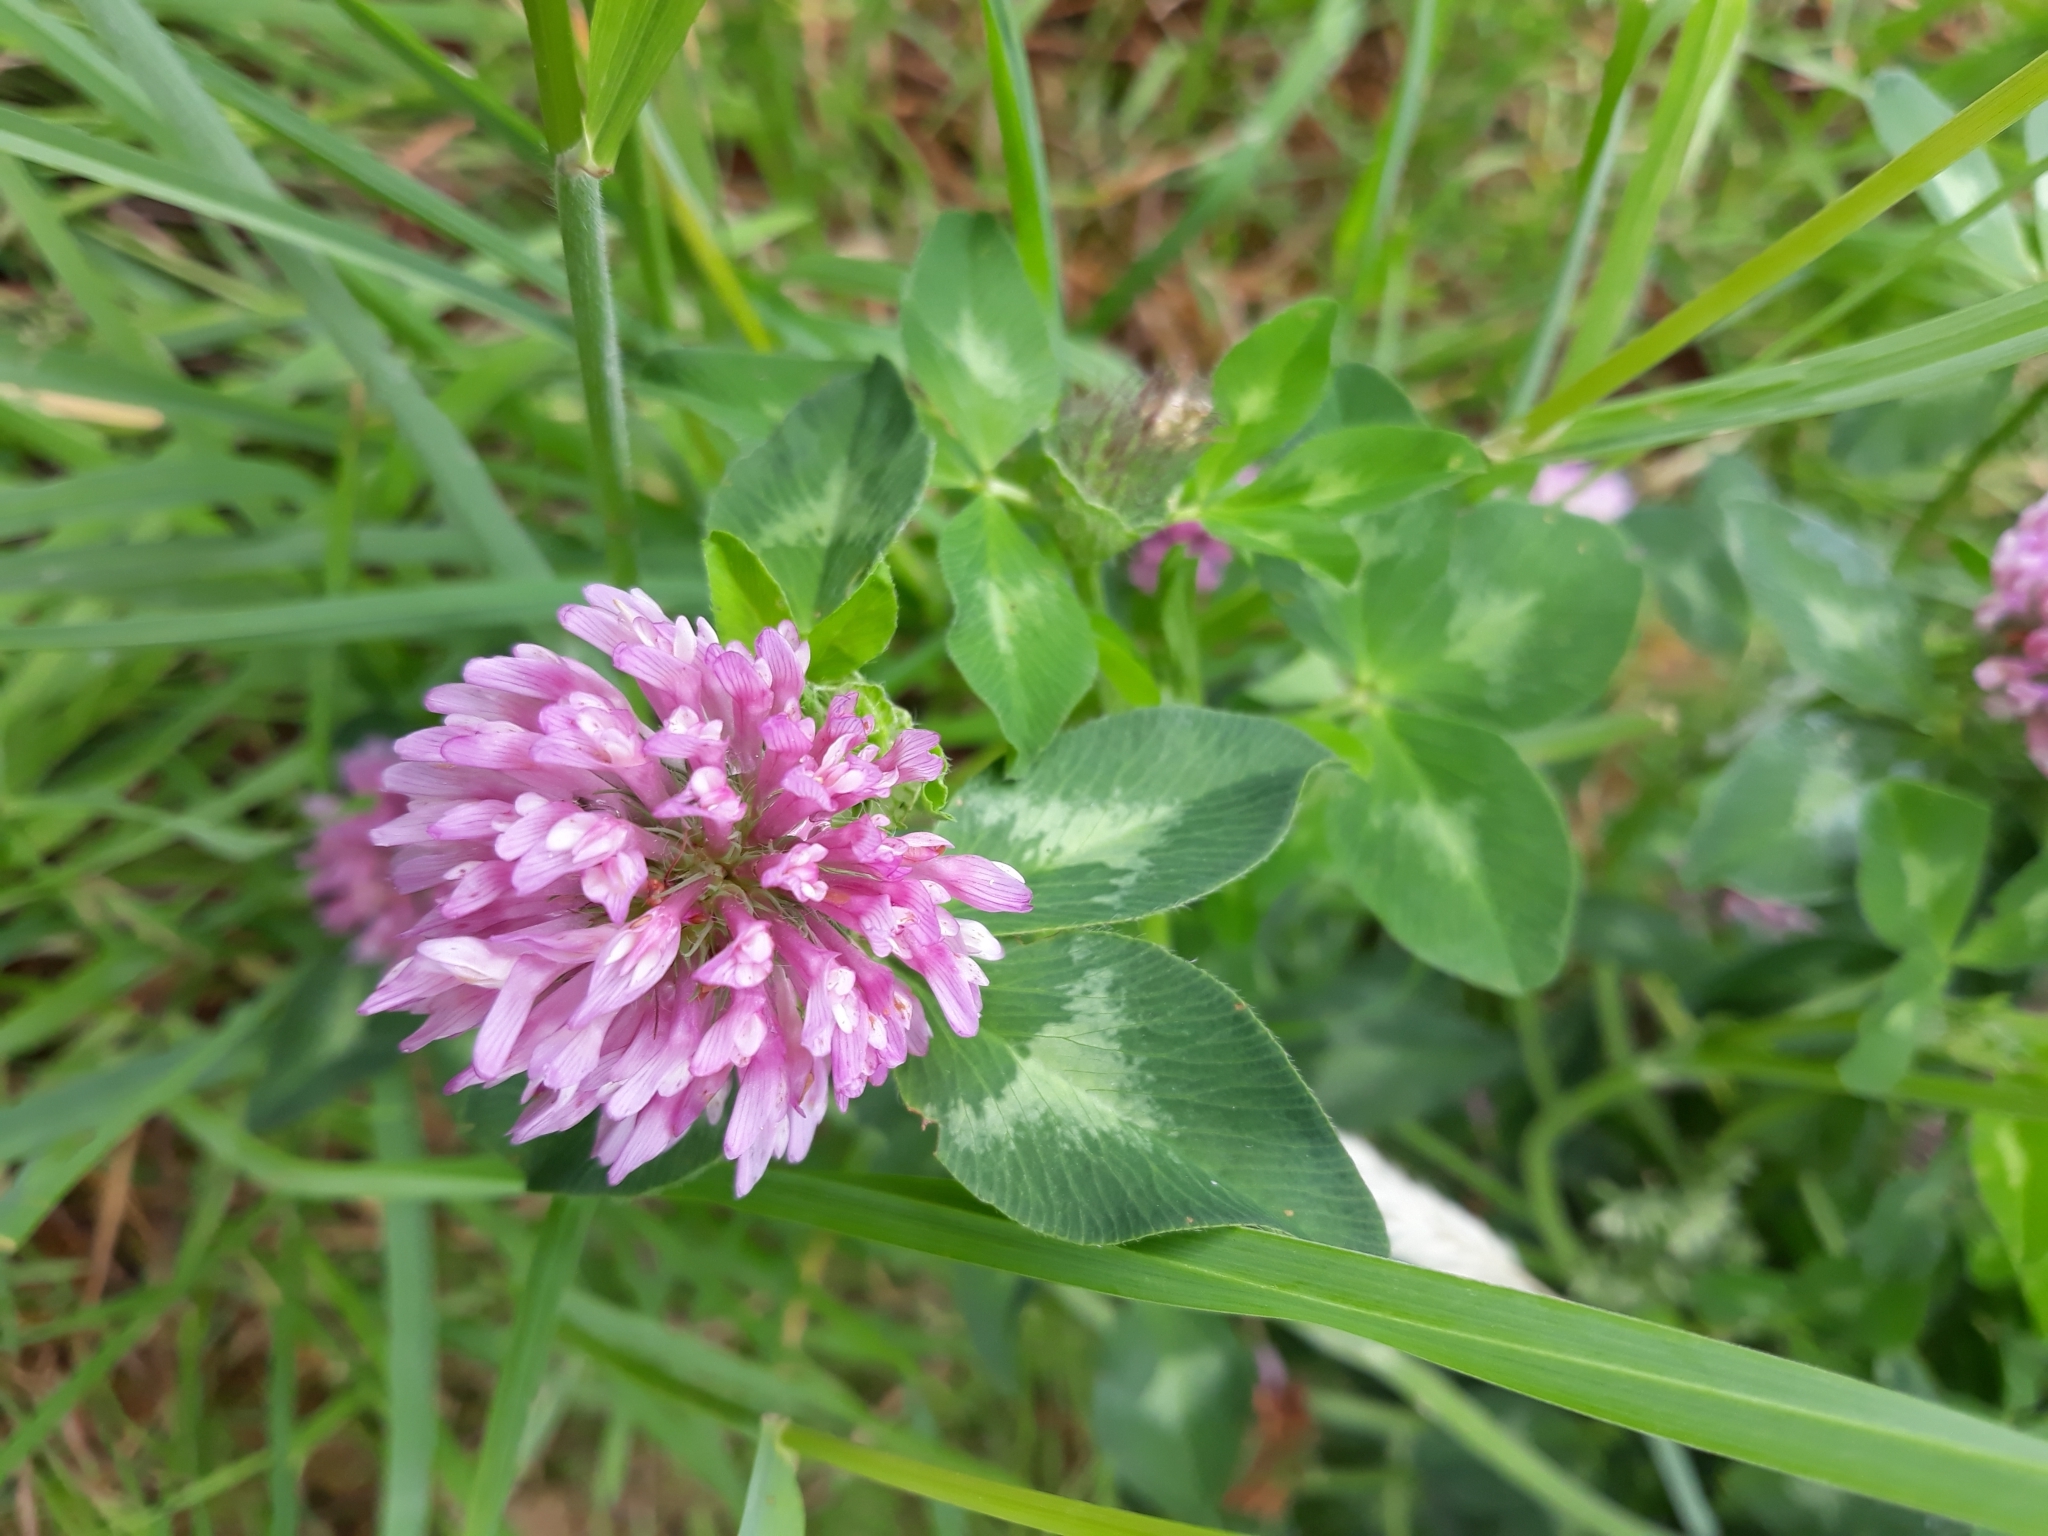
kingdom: Plantae
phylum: Tracheophyta
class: Magnoliopsida
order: Fabales
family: Fabaceae
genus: Trifolium
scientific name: Trifolium pratense
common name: Red clover
